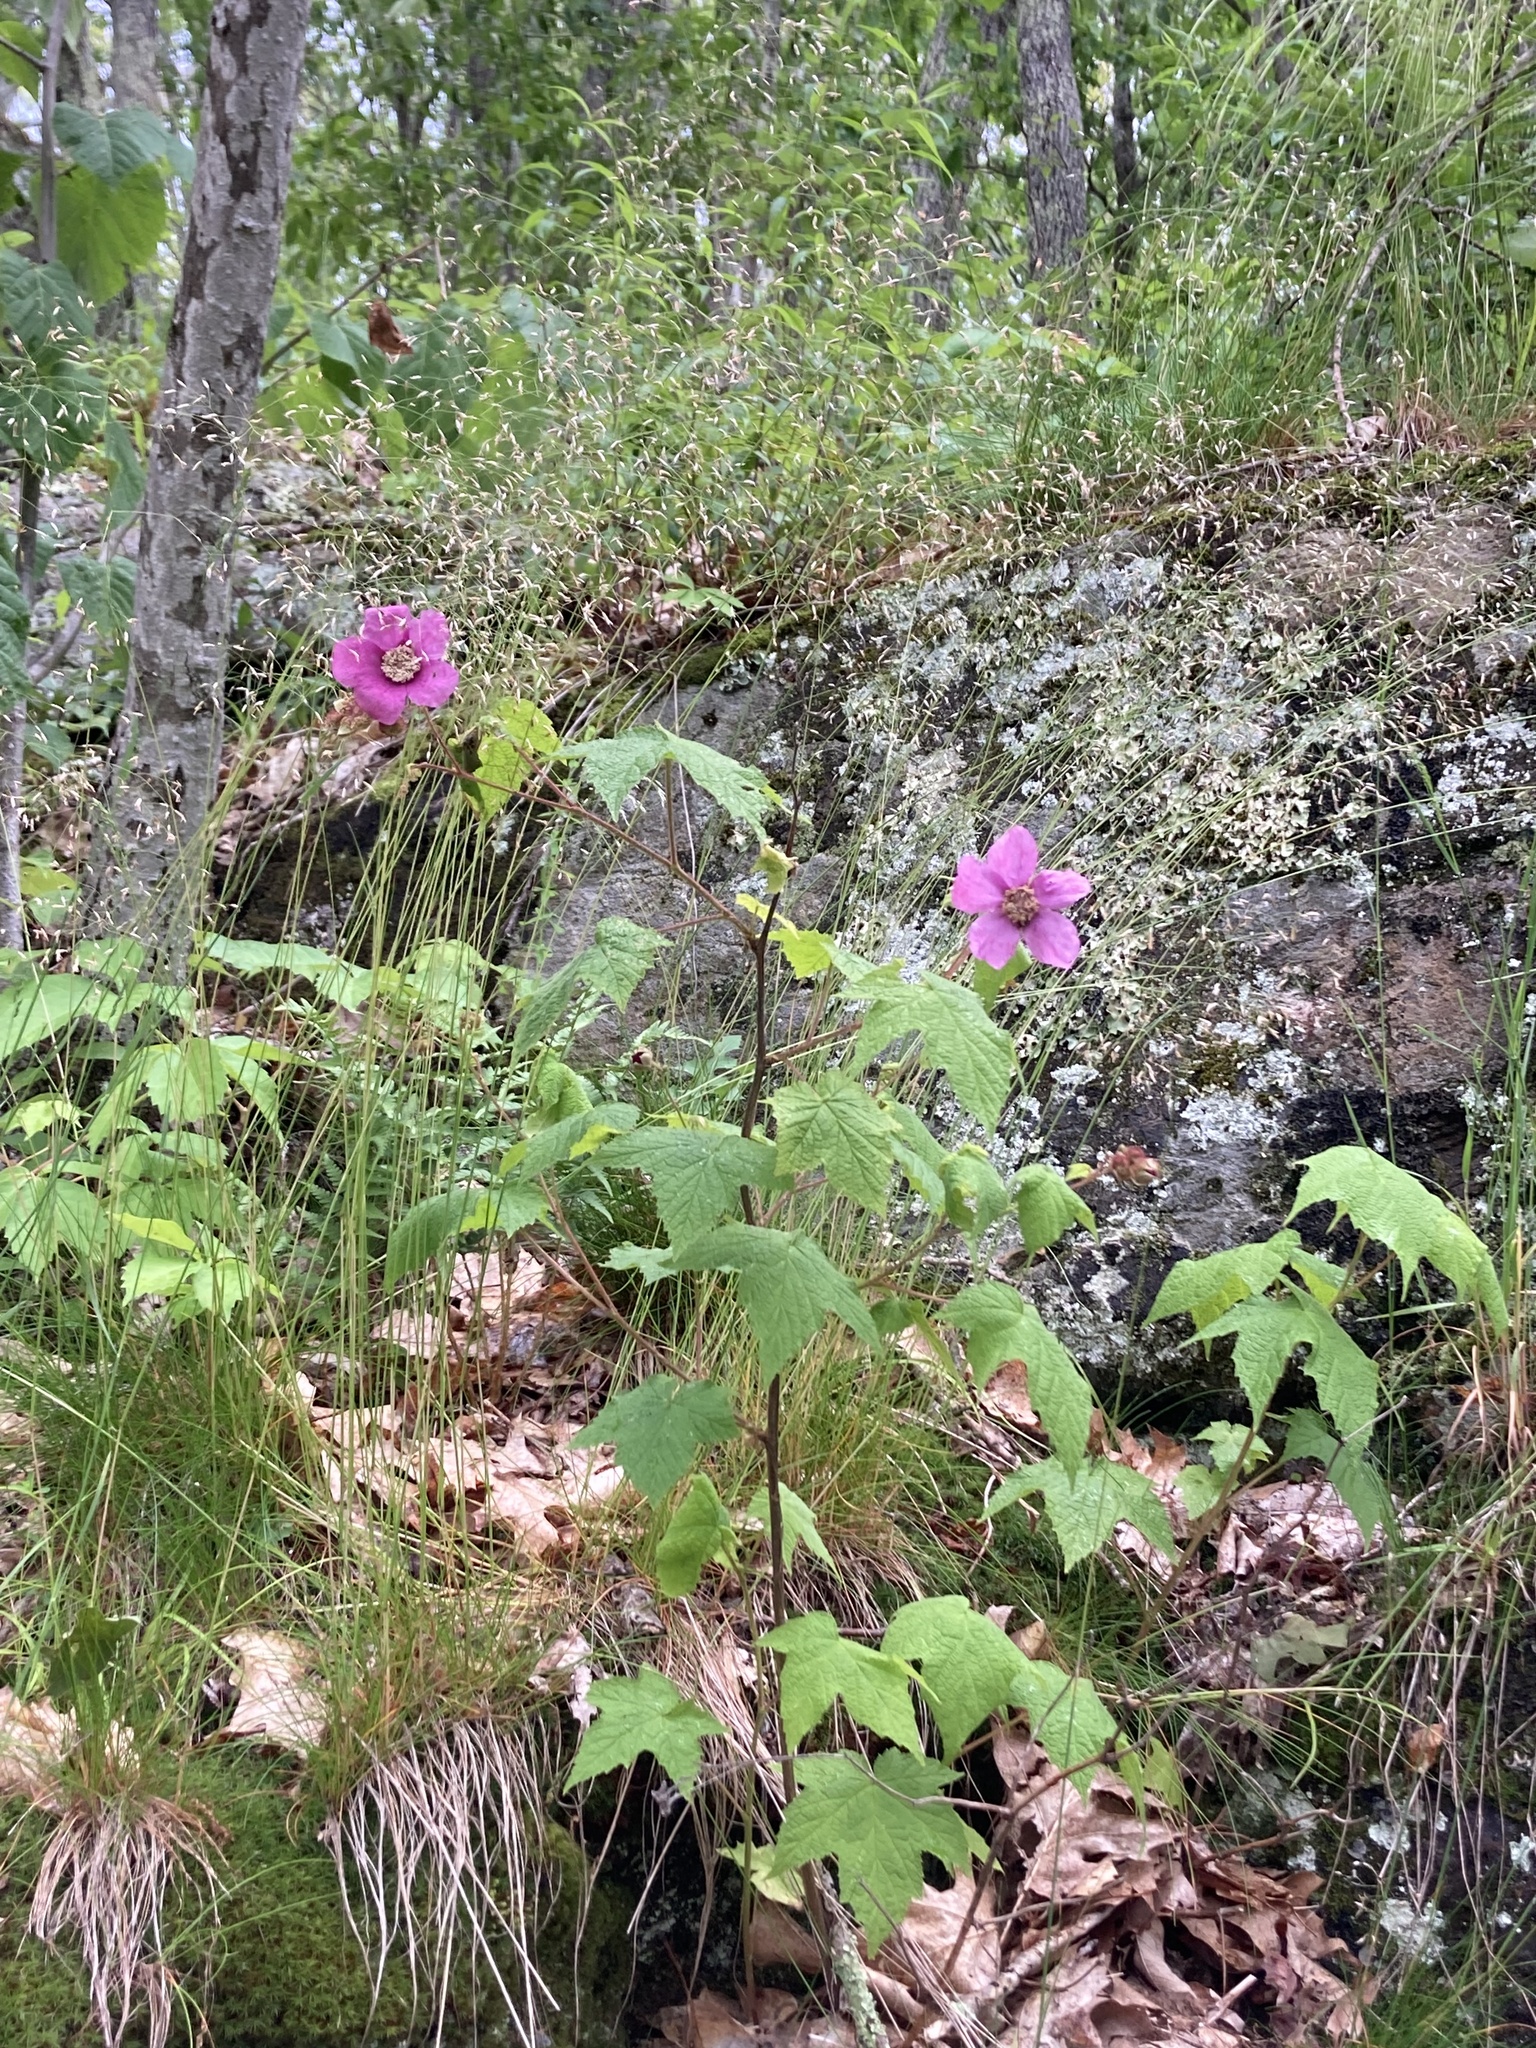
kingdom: Plantae
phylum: Tracheophyta
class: Magnoliopsida
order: Rosales
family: Rosaceae
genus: Rubus
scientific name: Rubus odoratus
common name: Purple-flowered raspberry
